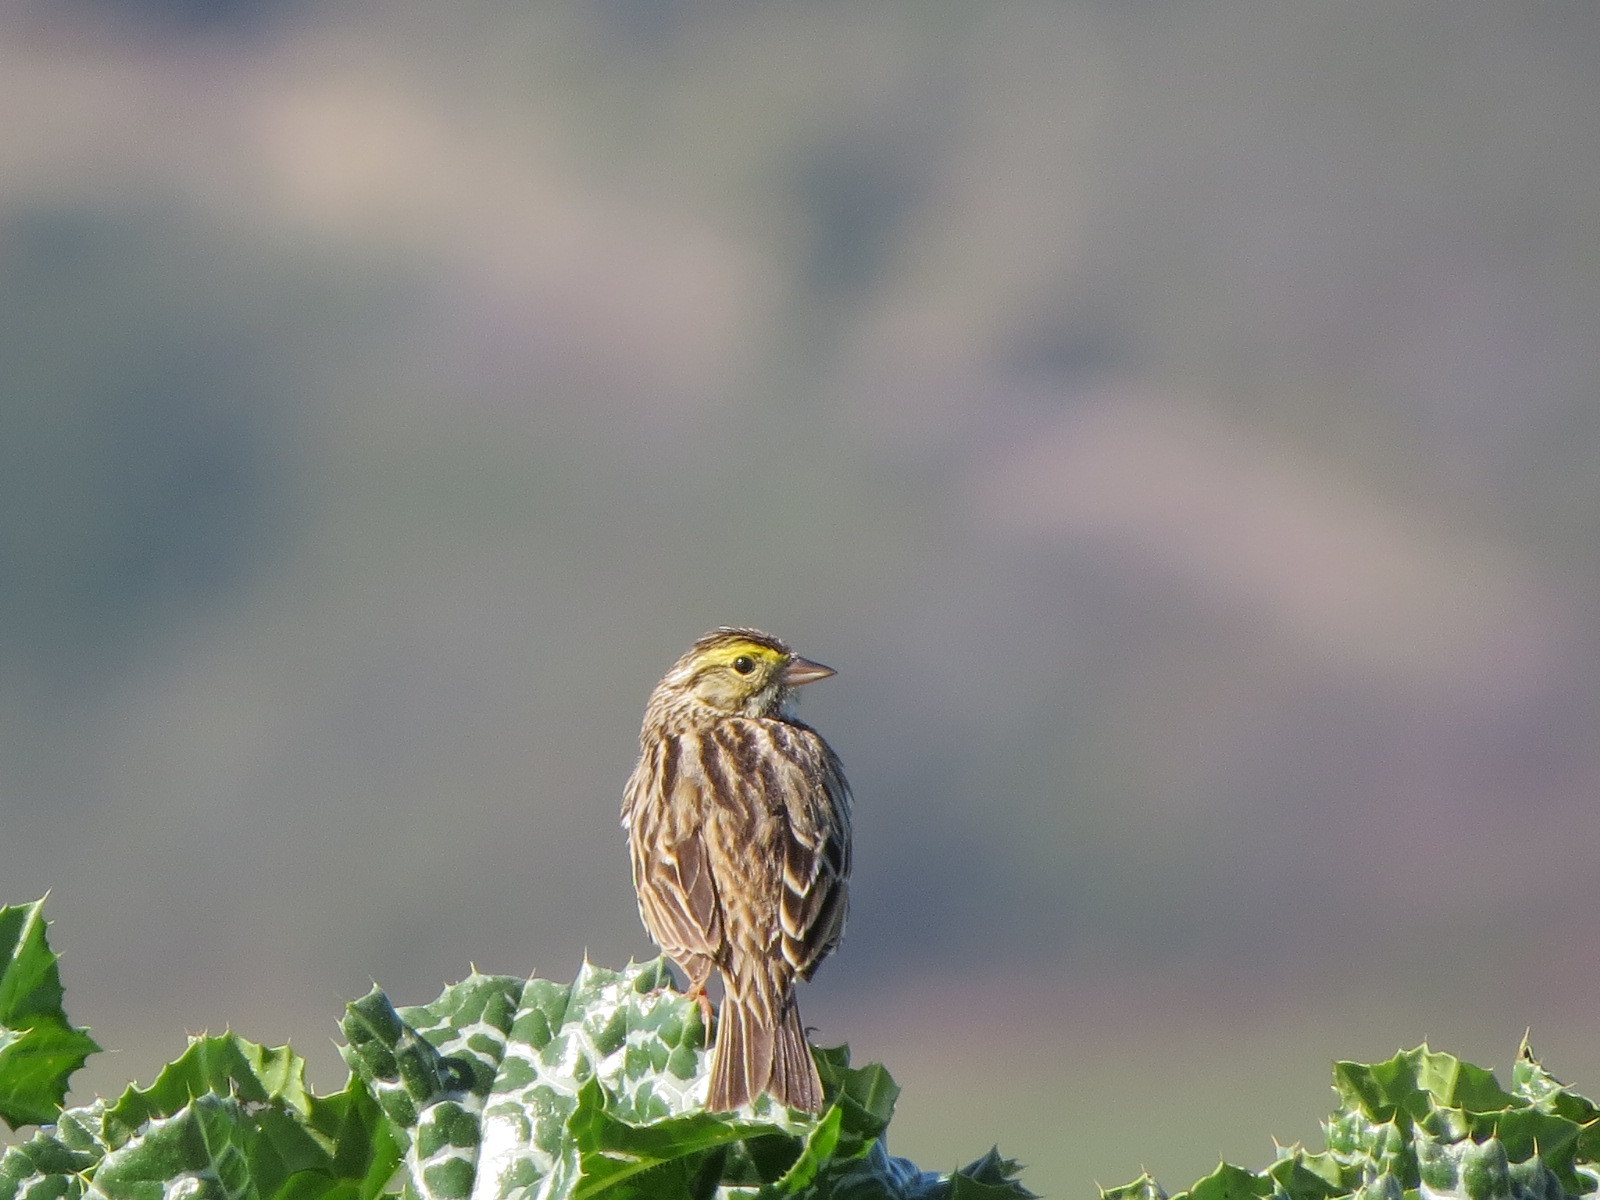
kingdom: Animalia
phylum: Chordata
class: Aves
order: Passeriformes
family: Passerellidae
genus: Passerculus
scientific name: Passerculus sandwichensis
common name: Savannah sparrow
